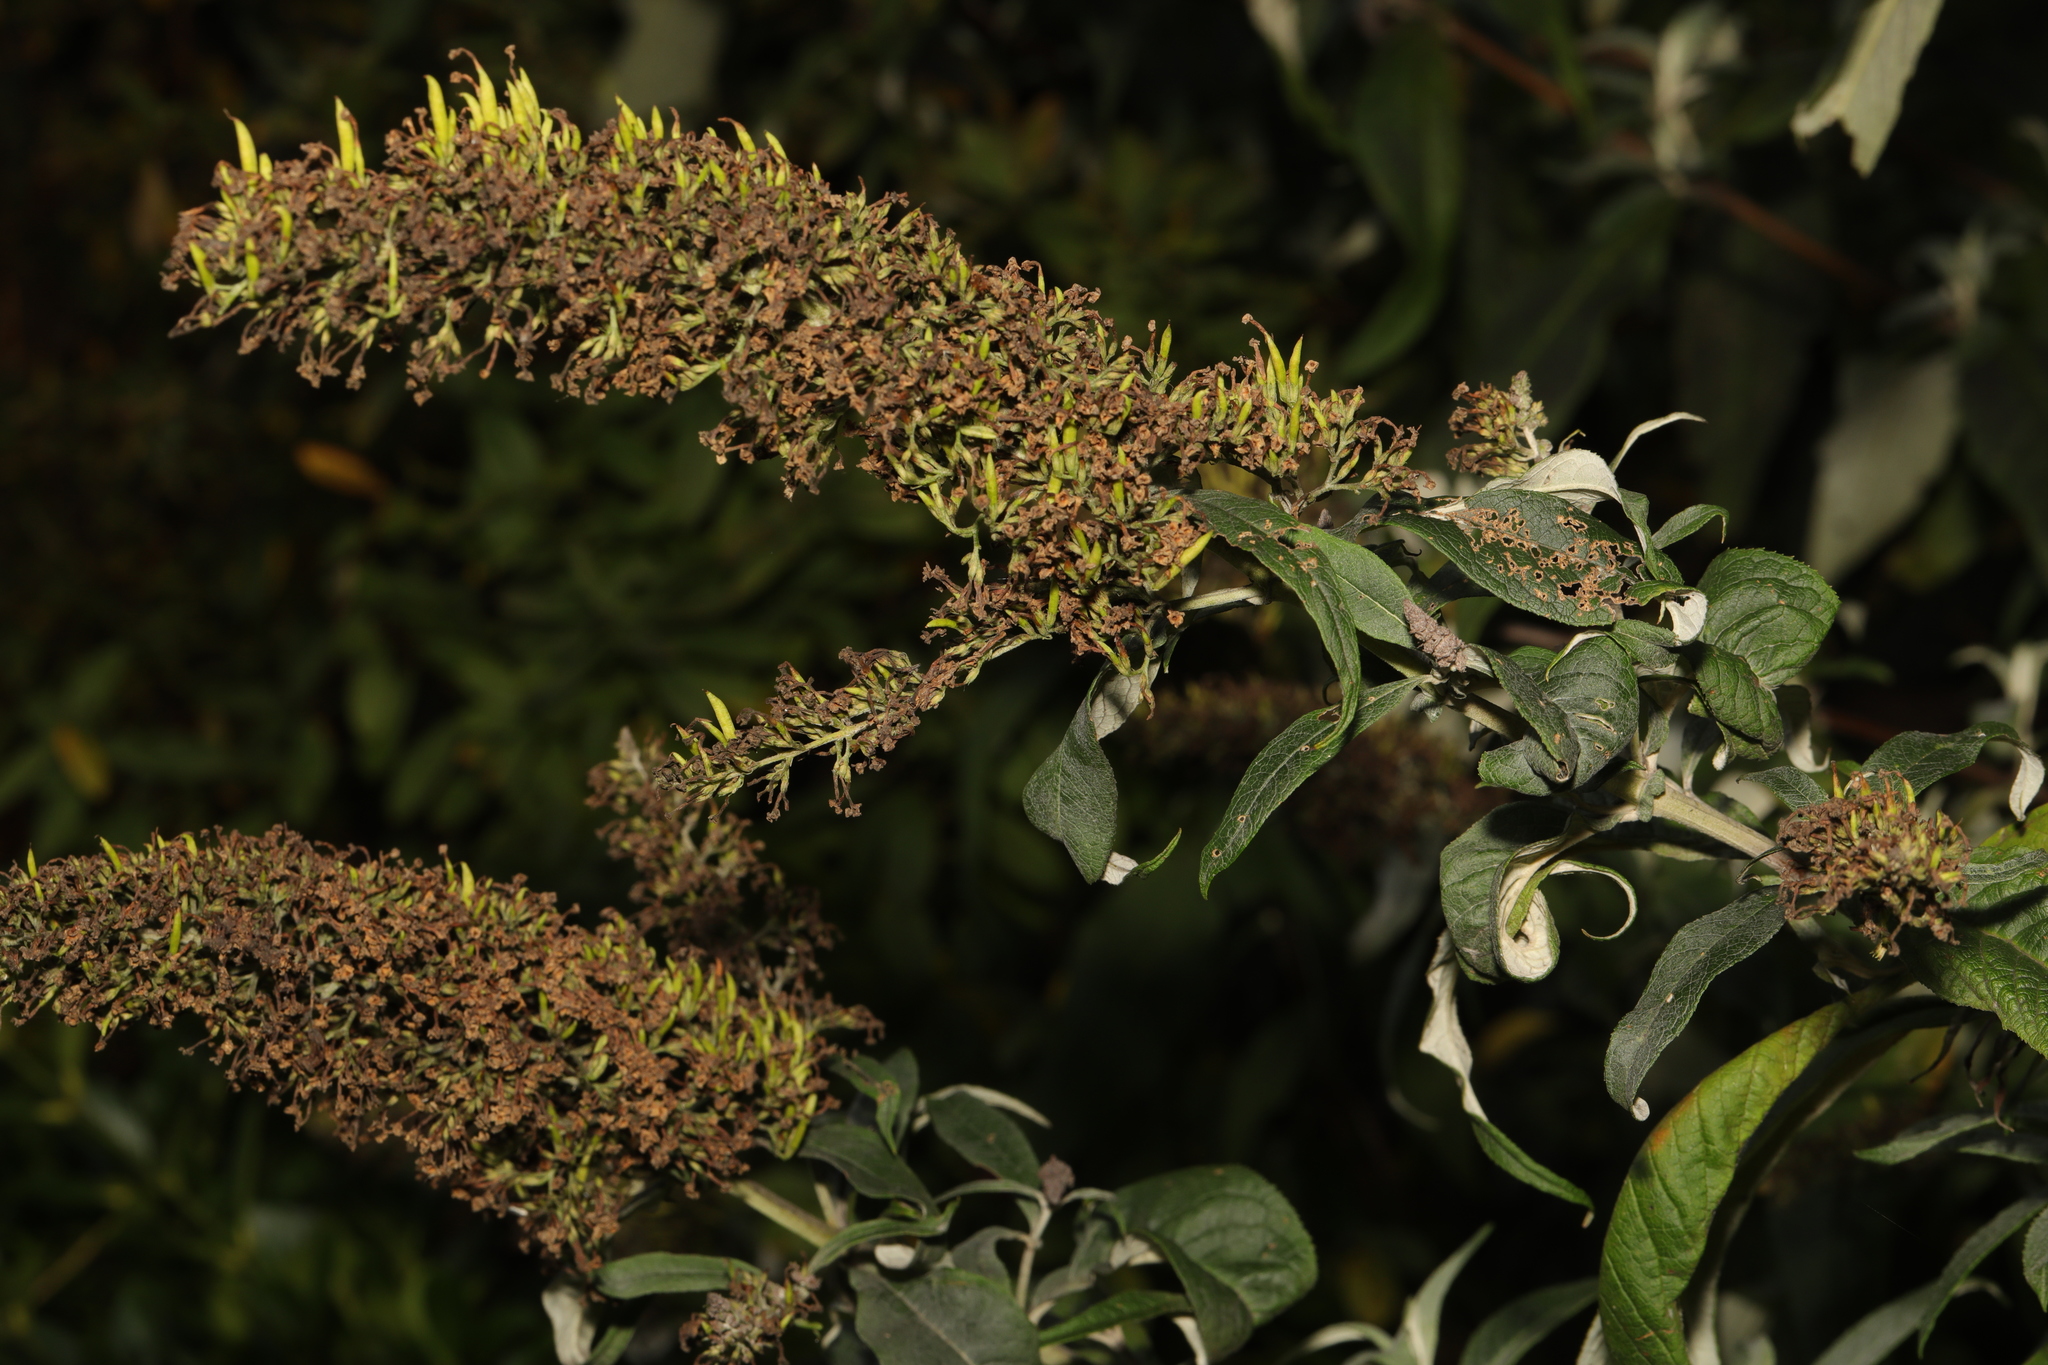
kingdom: Plantae
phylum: Tracheophyta
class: Magnoliopsida
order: Lamiales
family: Scrophulariaceae
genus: Buddleja
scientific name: Buddleja davidii
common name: Butterfly-bush
